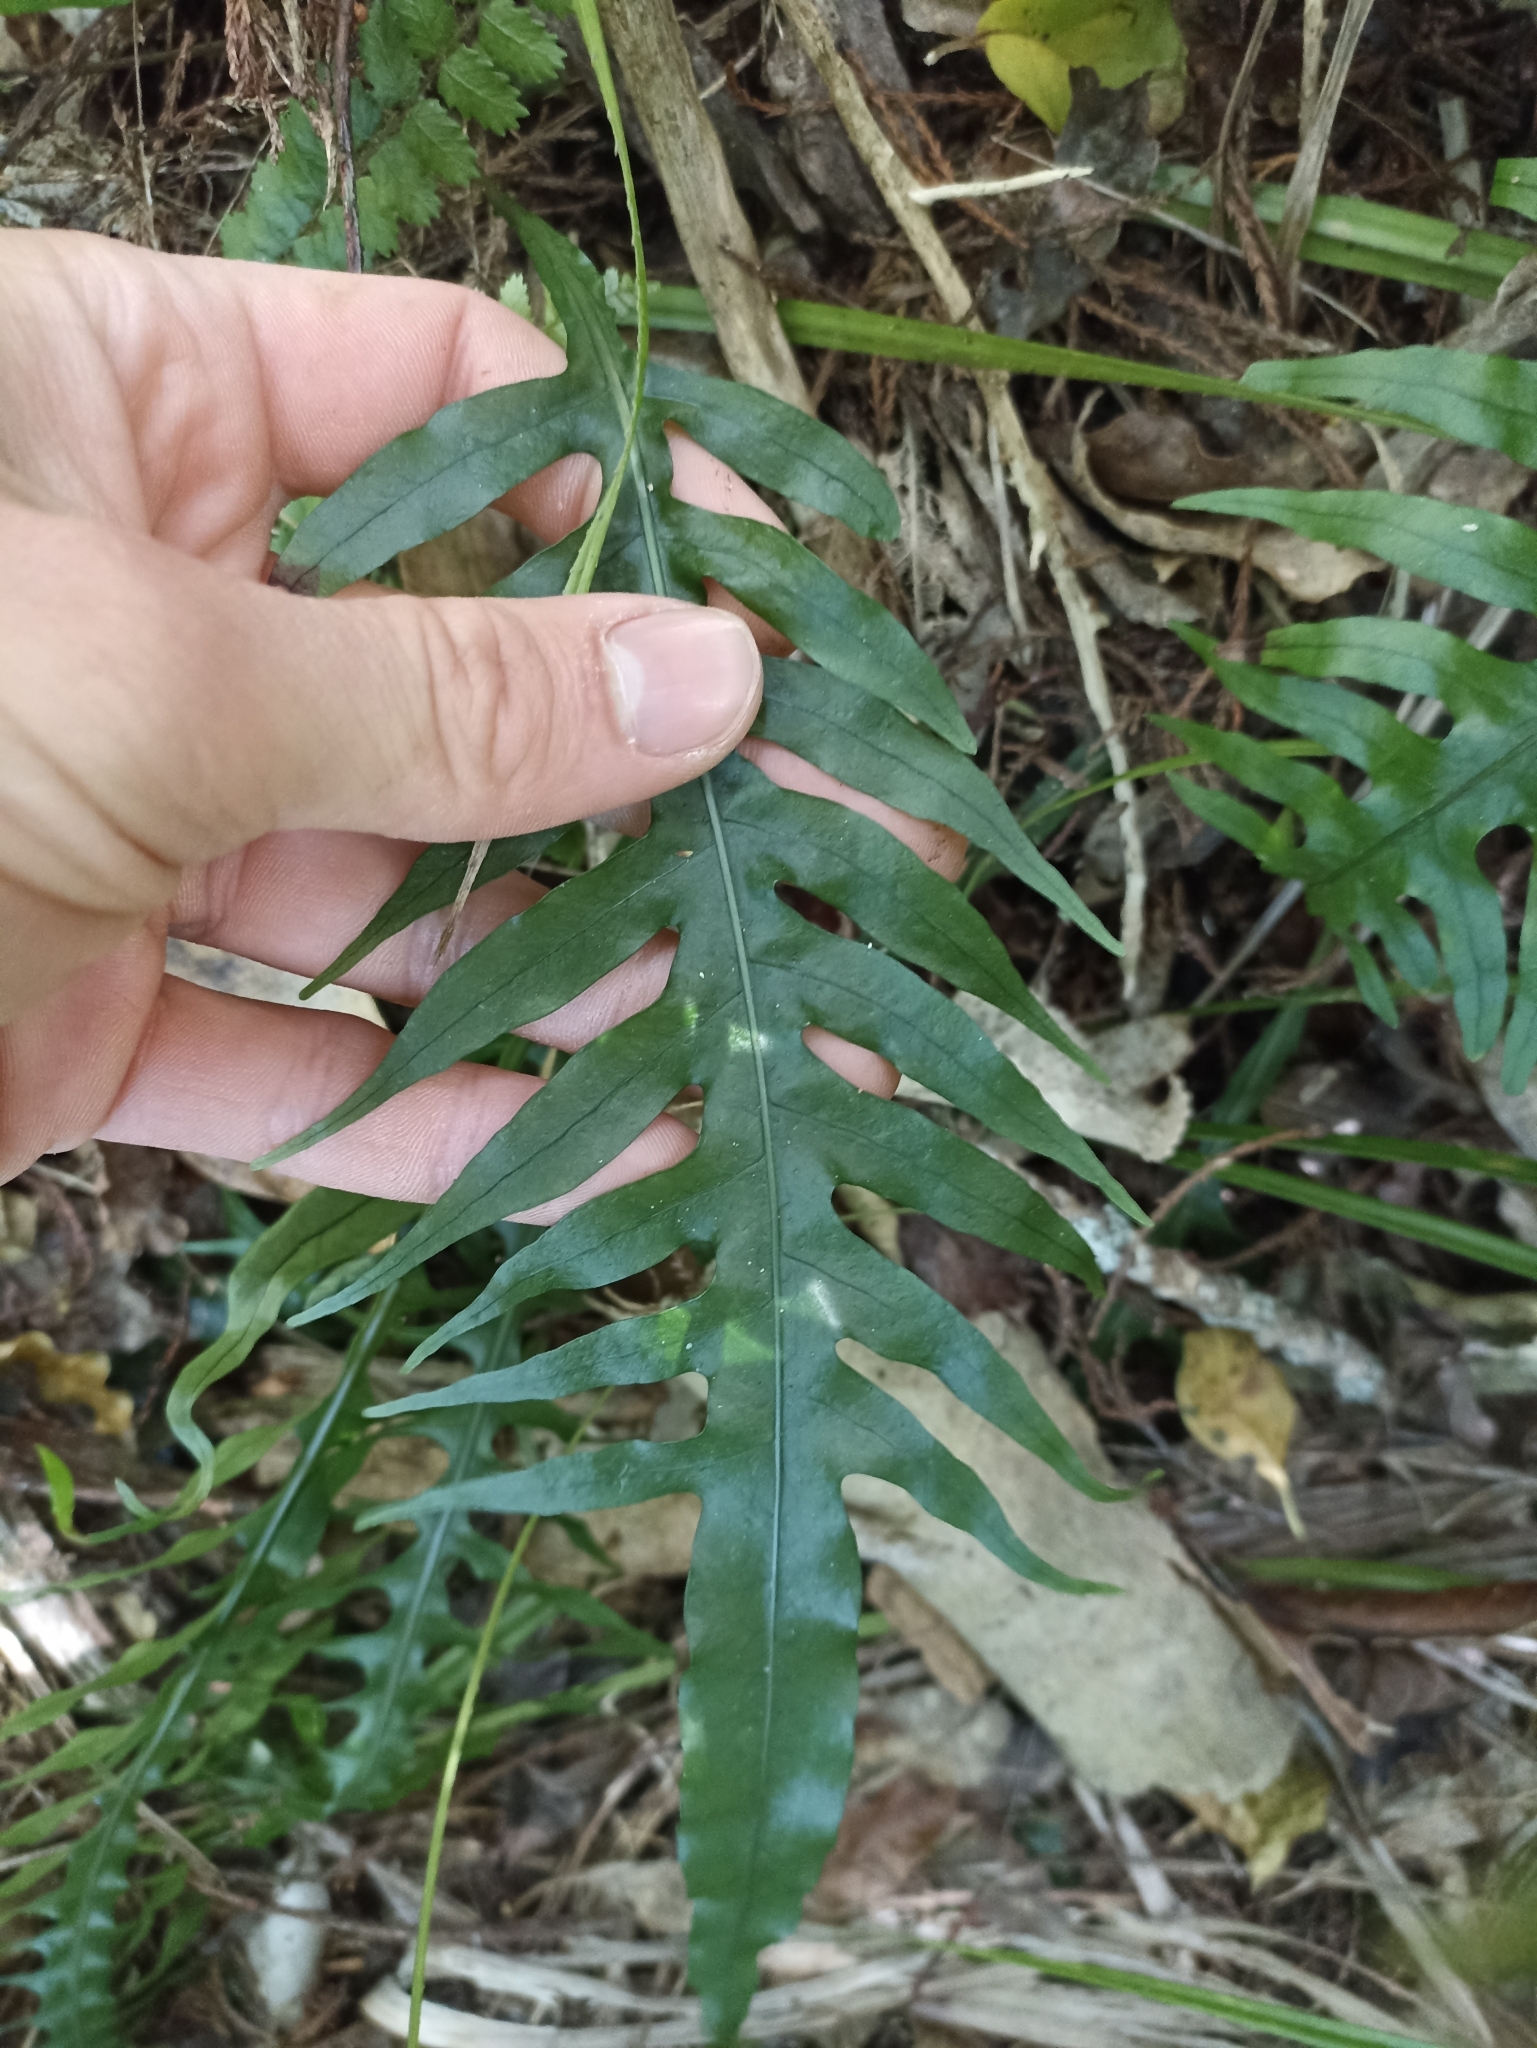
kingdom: Plantae
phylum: Tracheophyta
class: Polypodiopsida
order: Polypodiales
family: Polypodiaceae
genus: Lecanopteris
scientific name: Lecanopteris scandens
